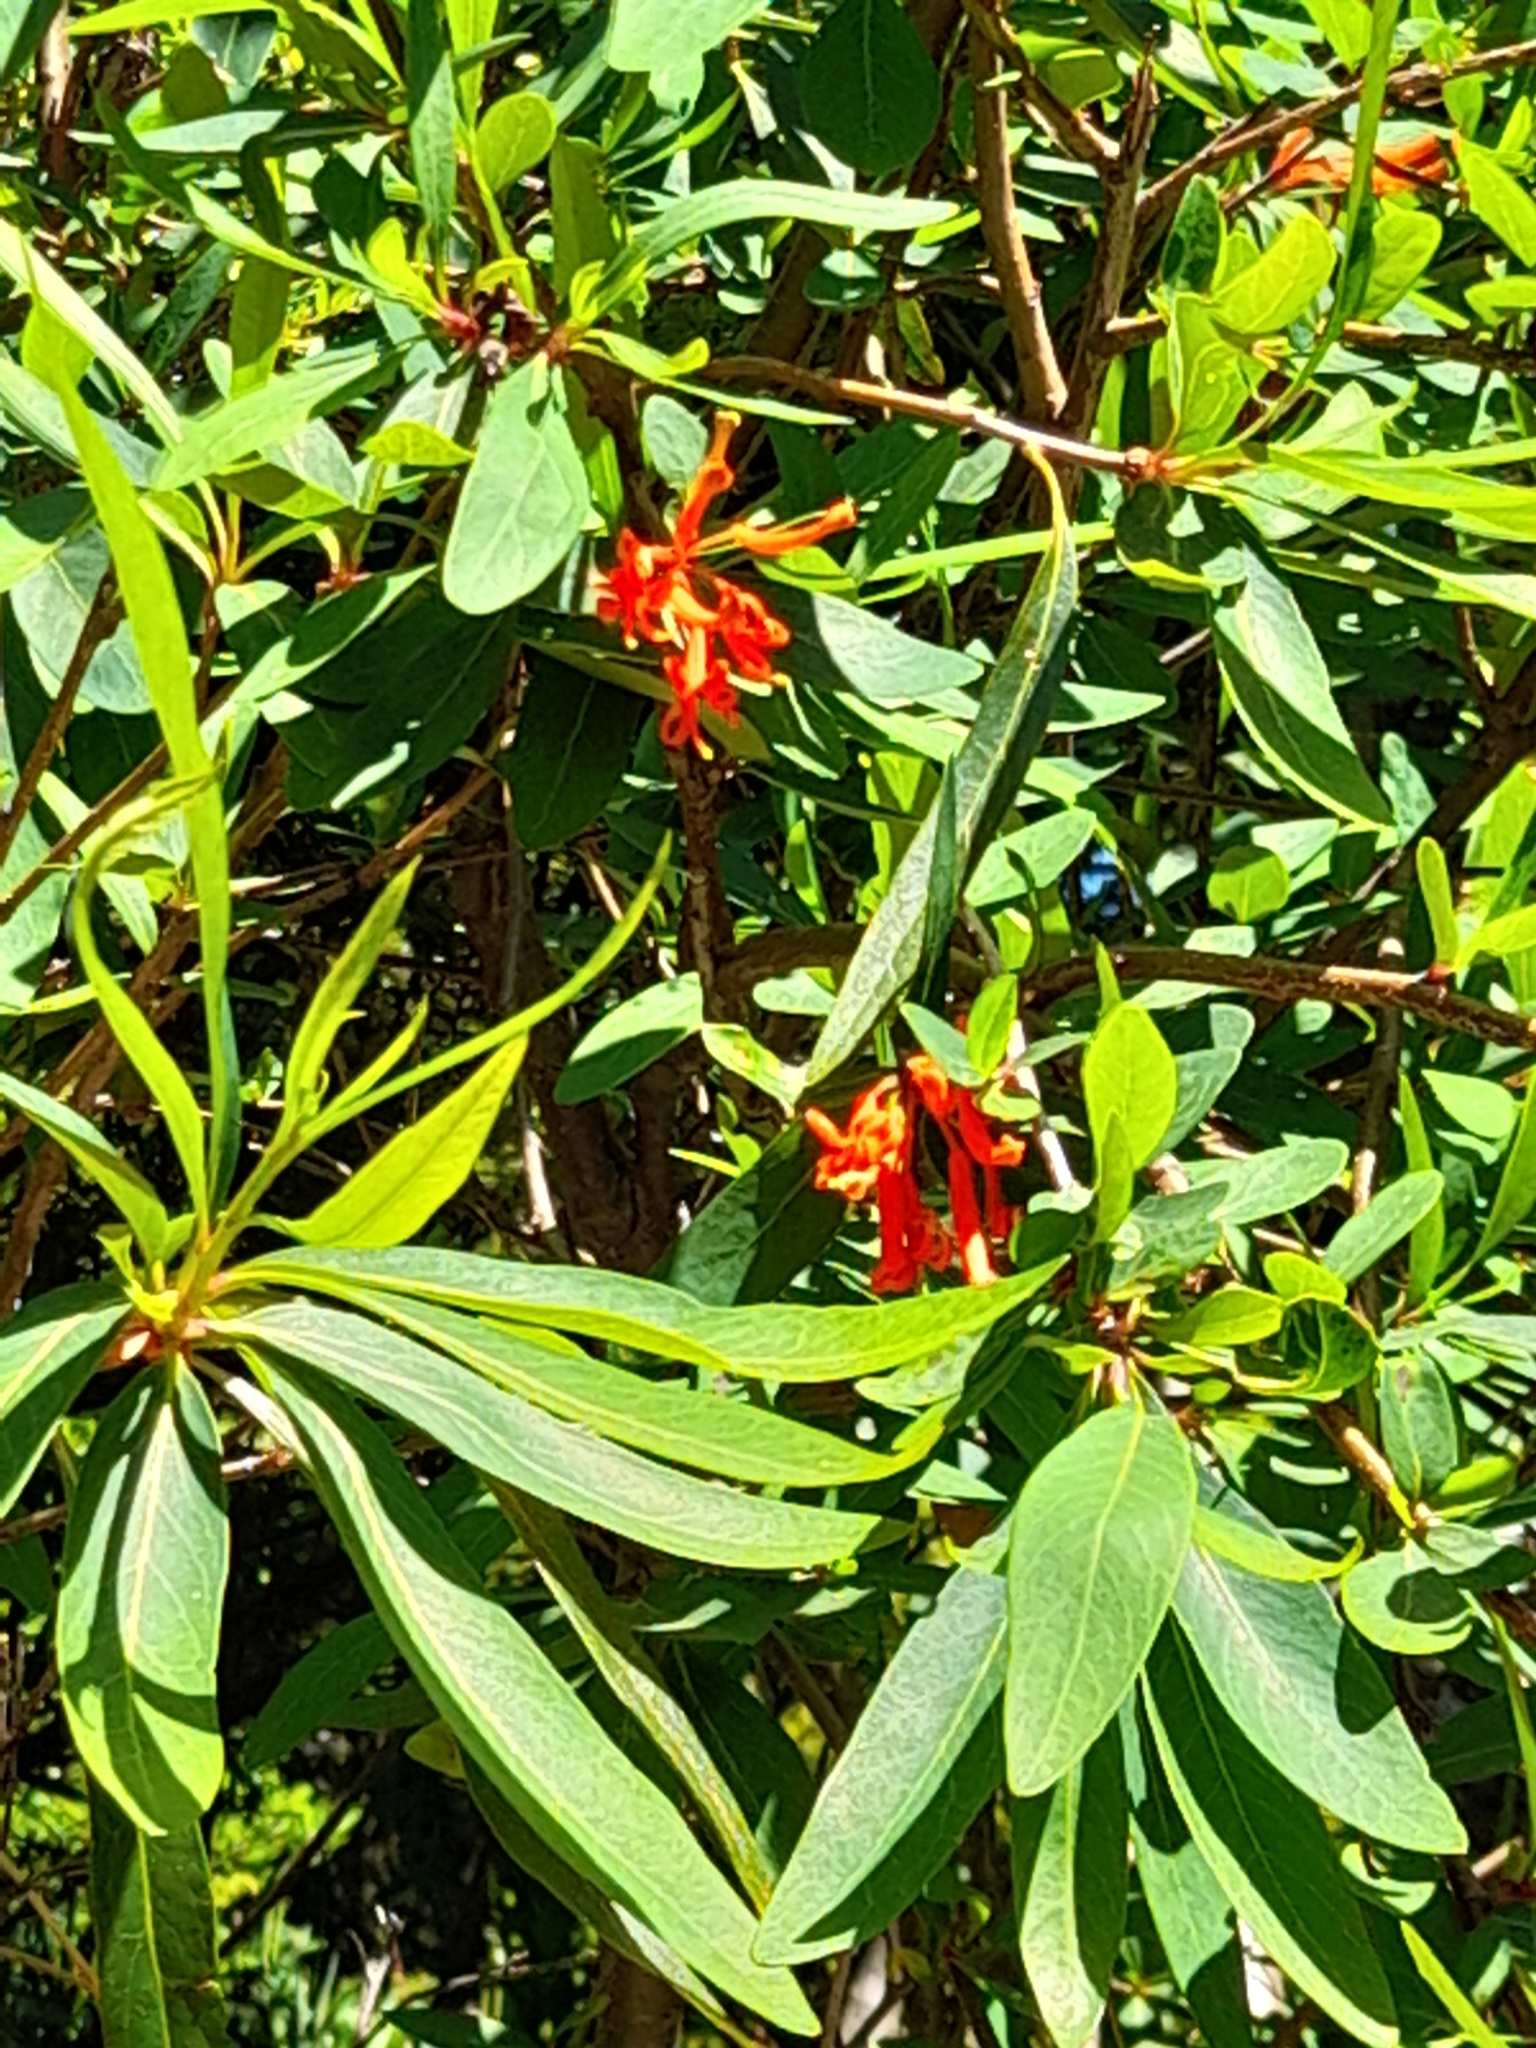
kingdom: Plantae
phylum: Tracheophyta
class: Magnoliopsida
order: Proteales
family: Proteaceae
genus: Embothrium
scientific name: Embothrium coccineum
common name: Chilean firebush
